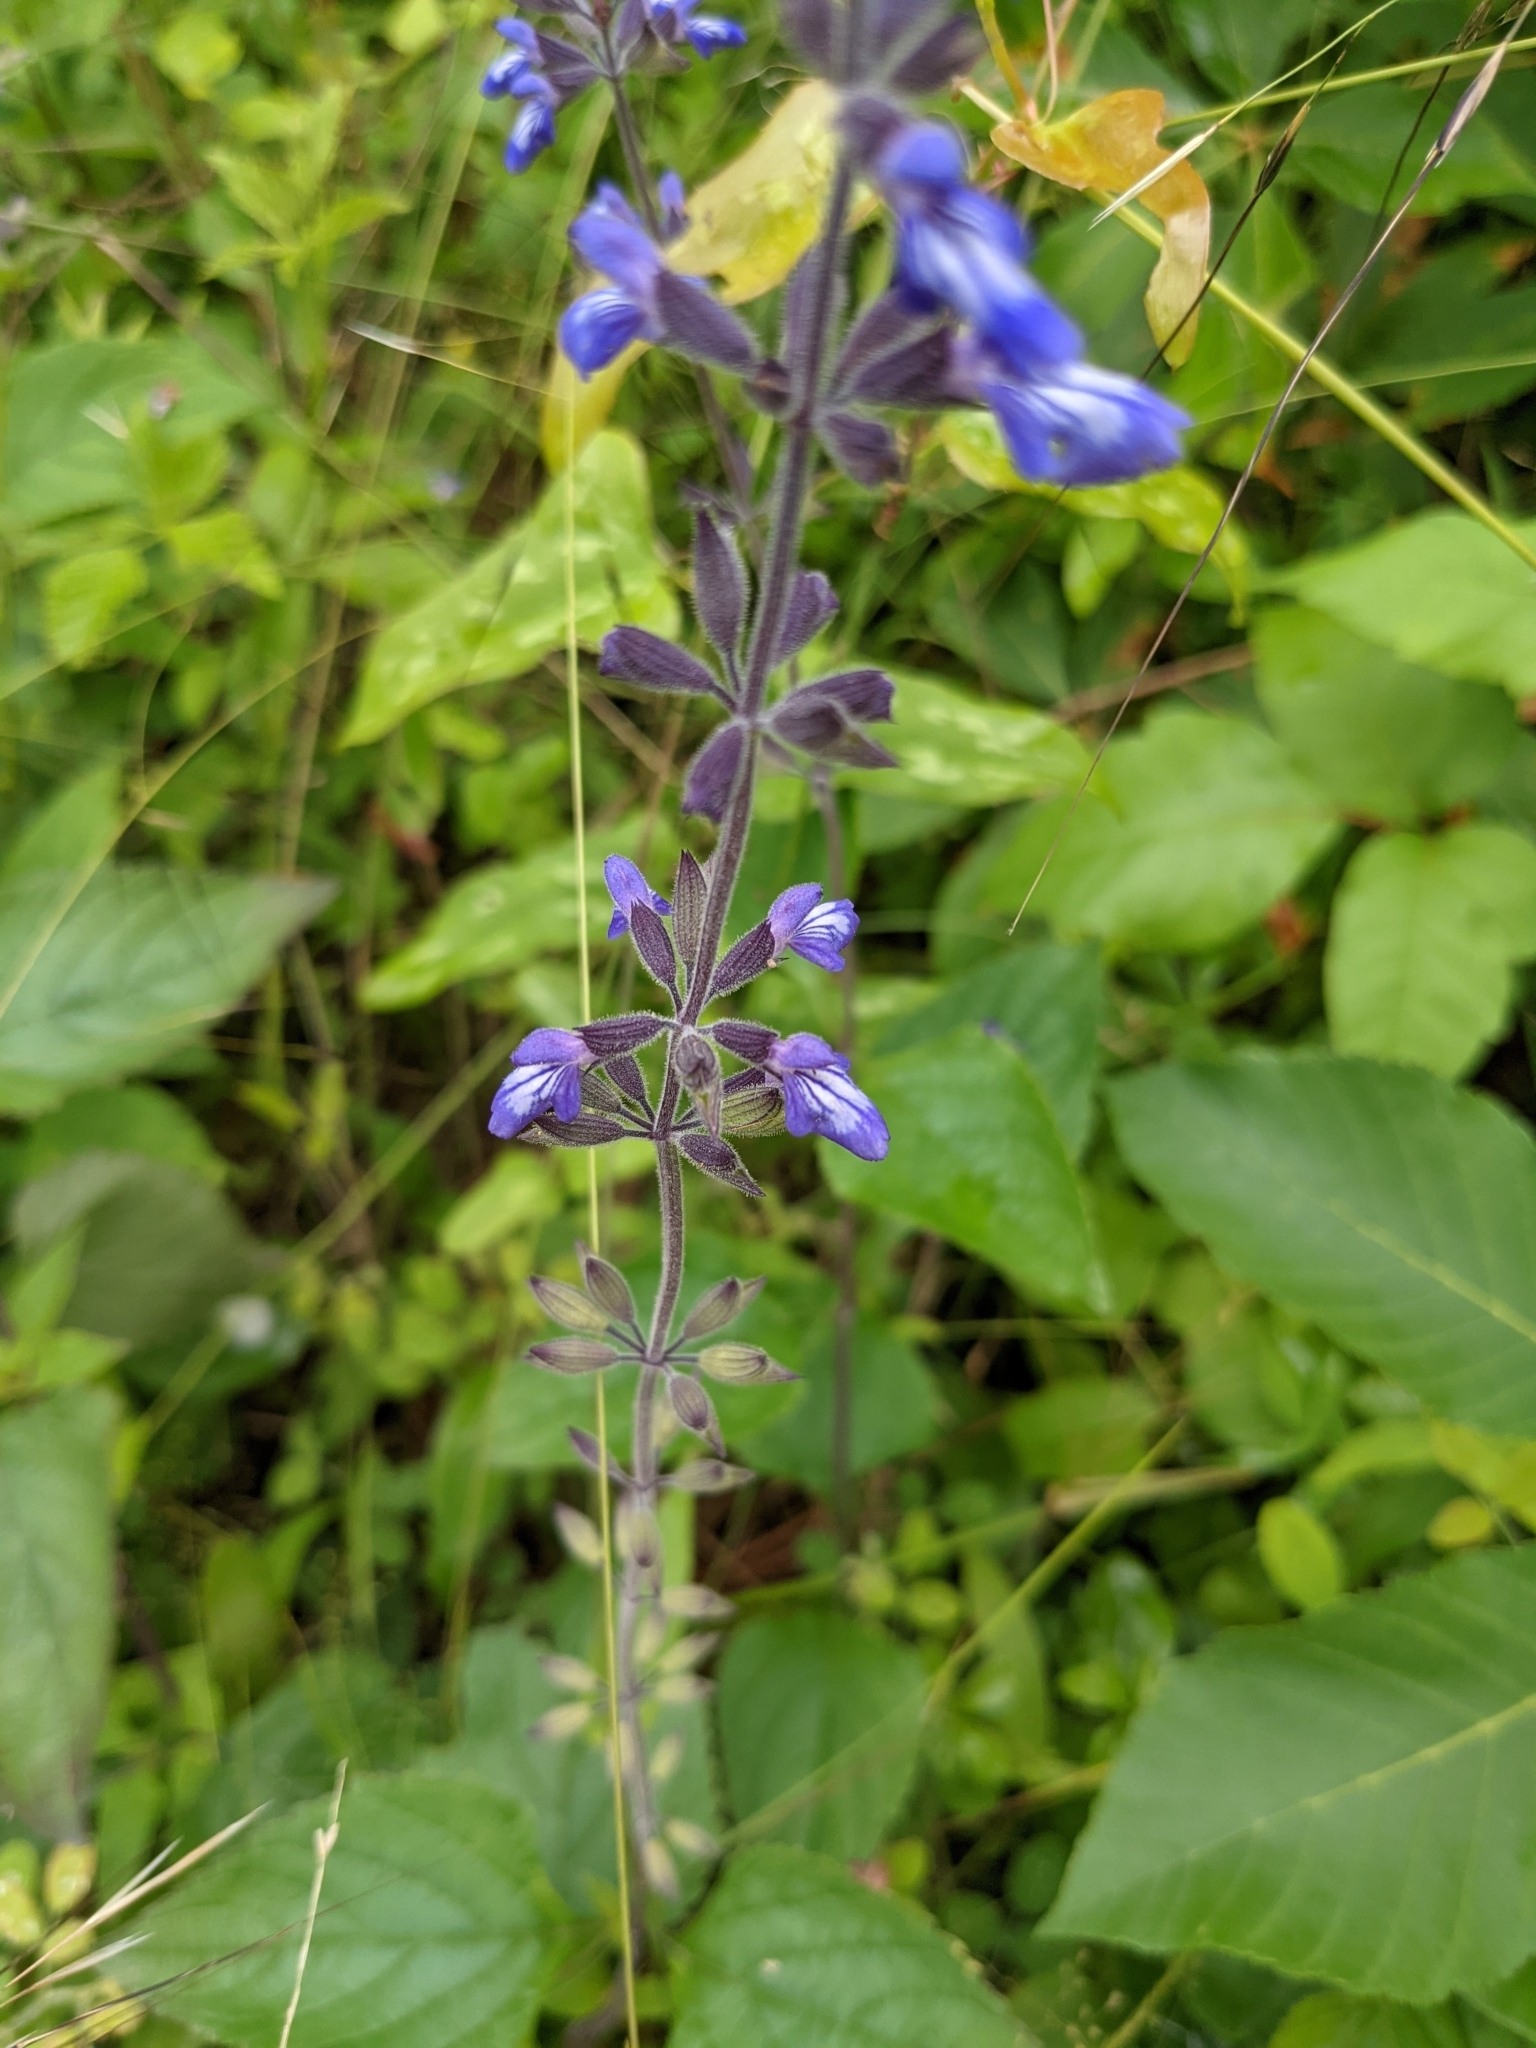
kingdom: Plantae
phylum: Tracheophyta
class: Magnoliopsida
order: Lamiales
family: Lamiaceae
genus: Salvia
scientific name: Salvia urticifolia
